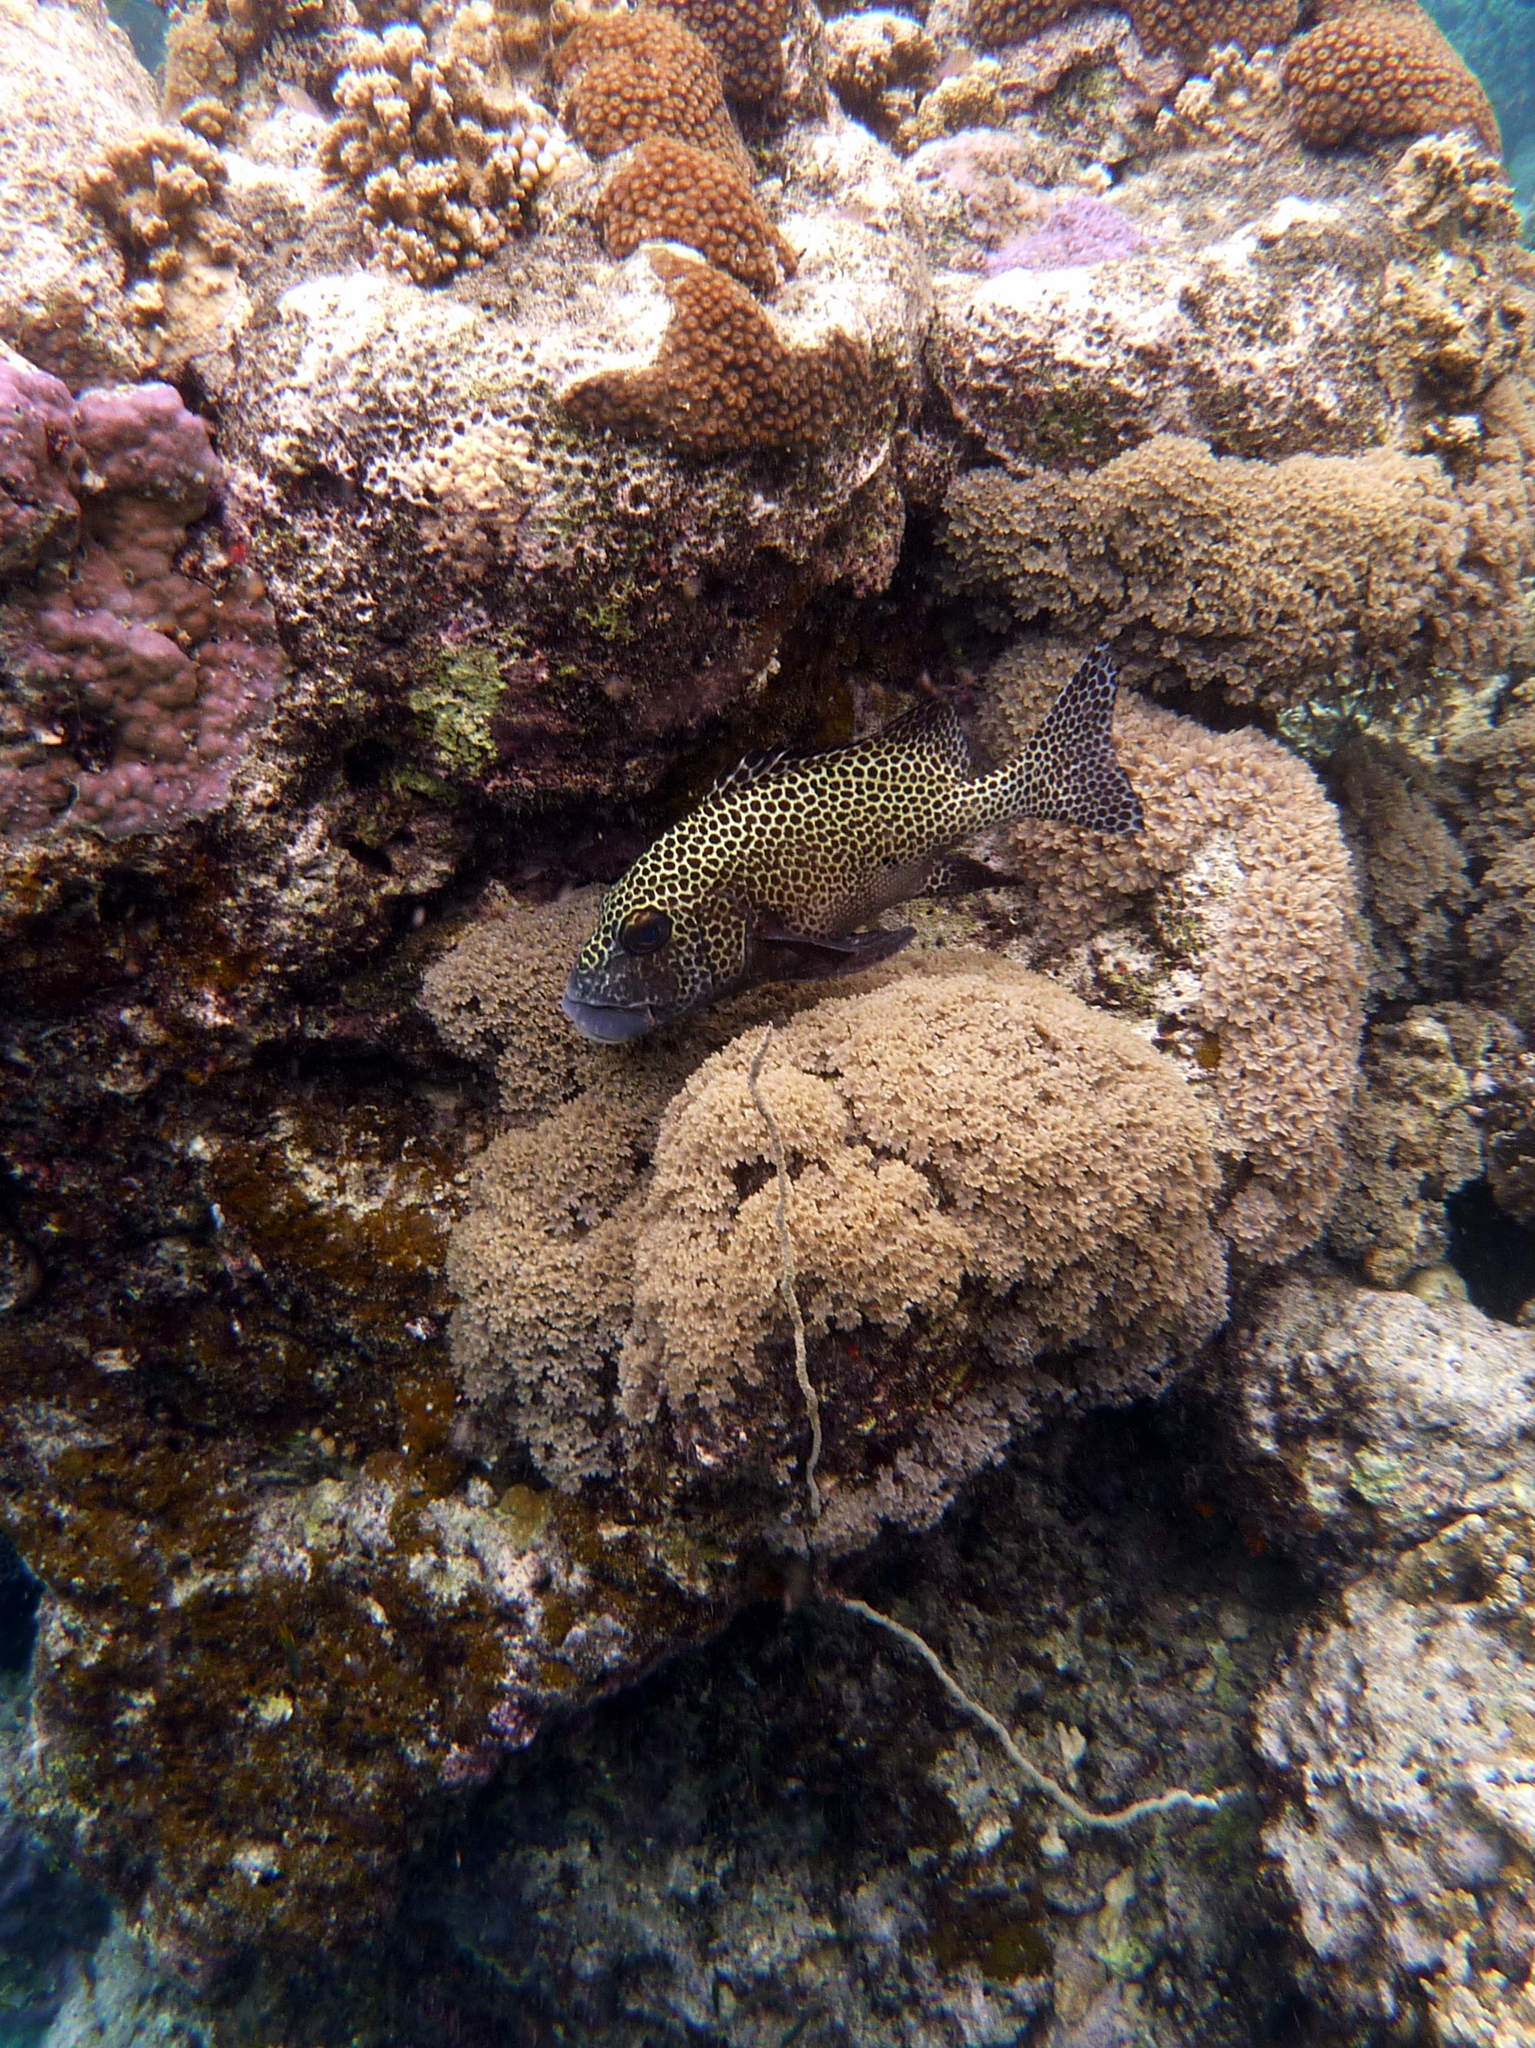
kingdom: Animalia
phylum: Chordata
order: Perciformes
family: Haemulidae
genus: Plectorhinchus
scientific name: Plectorhinchus chaetodonoides
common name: Harlequin sweetlips
